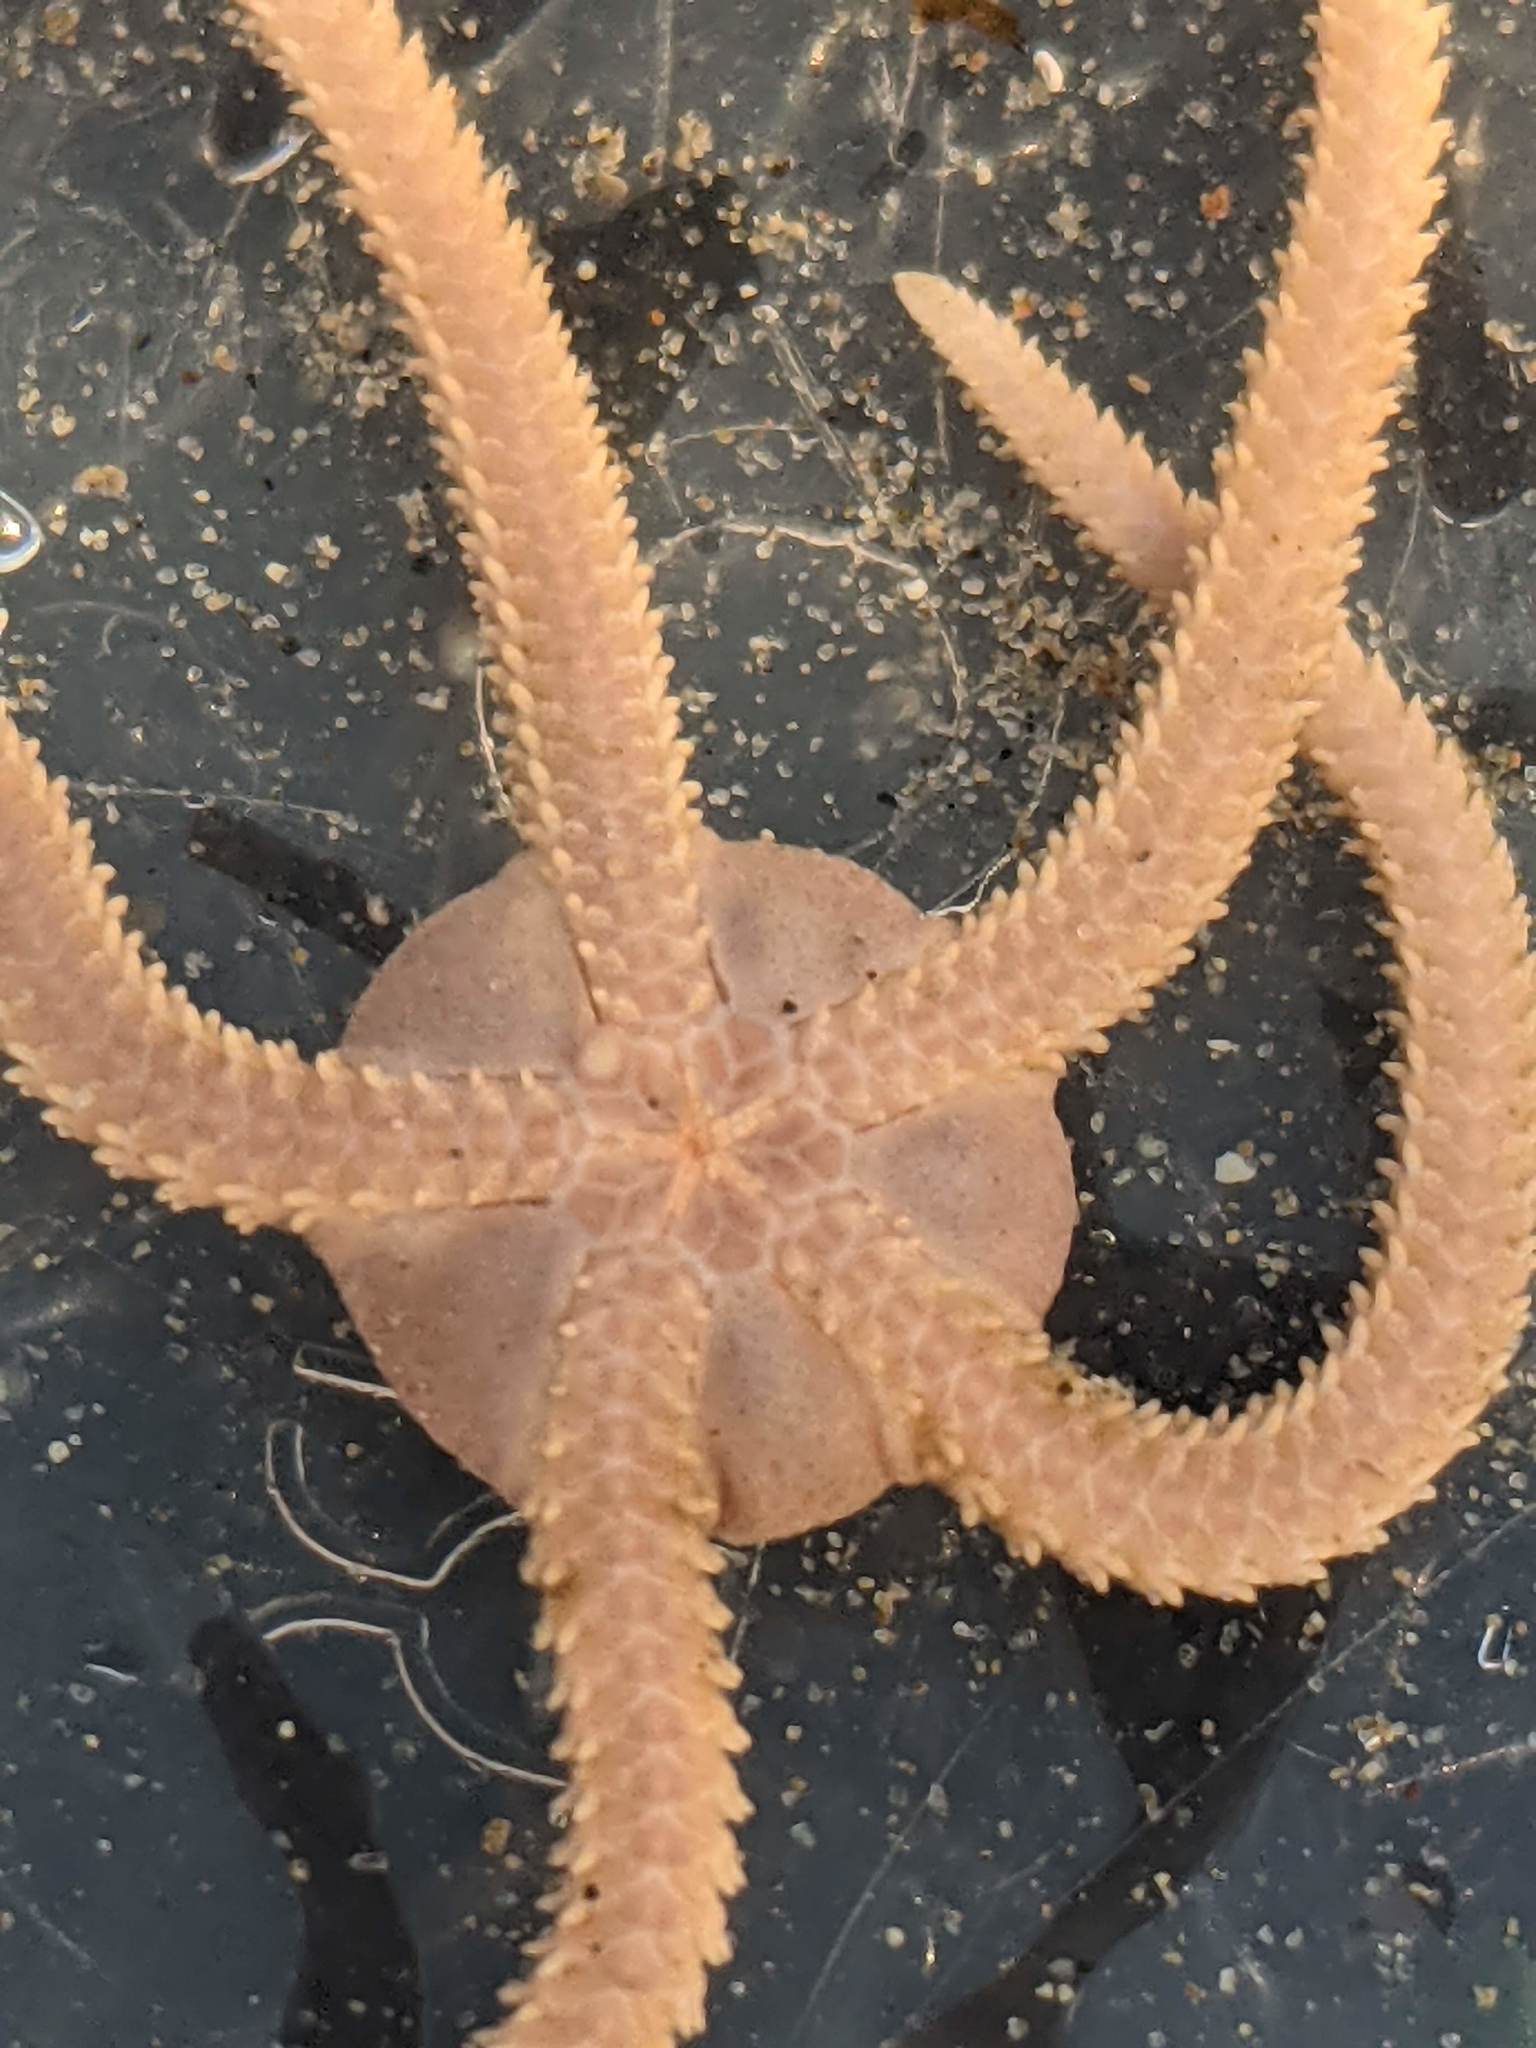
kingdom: Animalia
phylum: Echinodermata
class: Ophiuroidea
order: Amphilepidida
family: Hemieuryalidae
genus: Ophioplocus
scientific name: Ophioplocus esmarki
